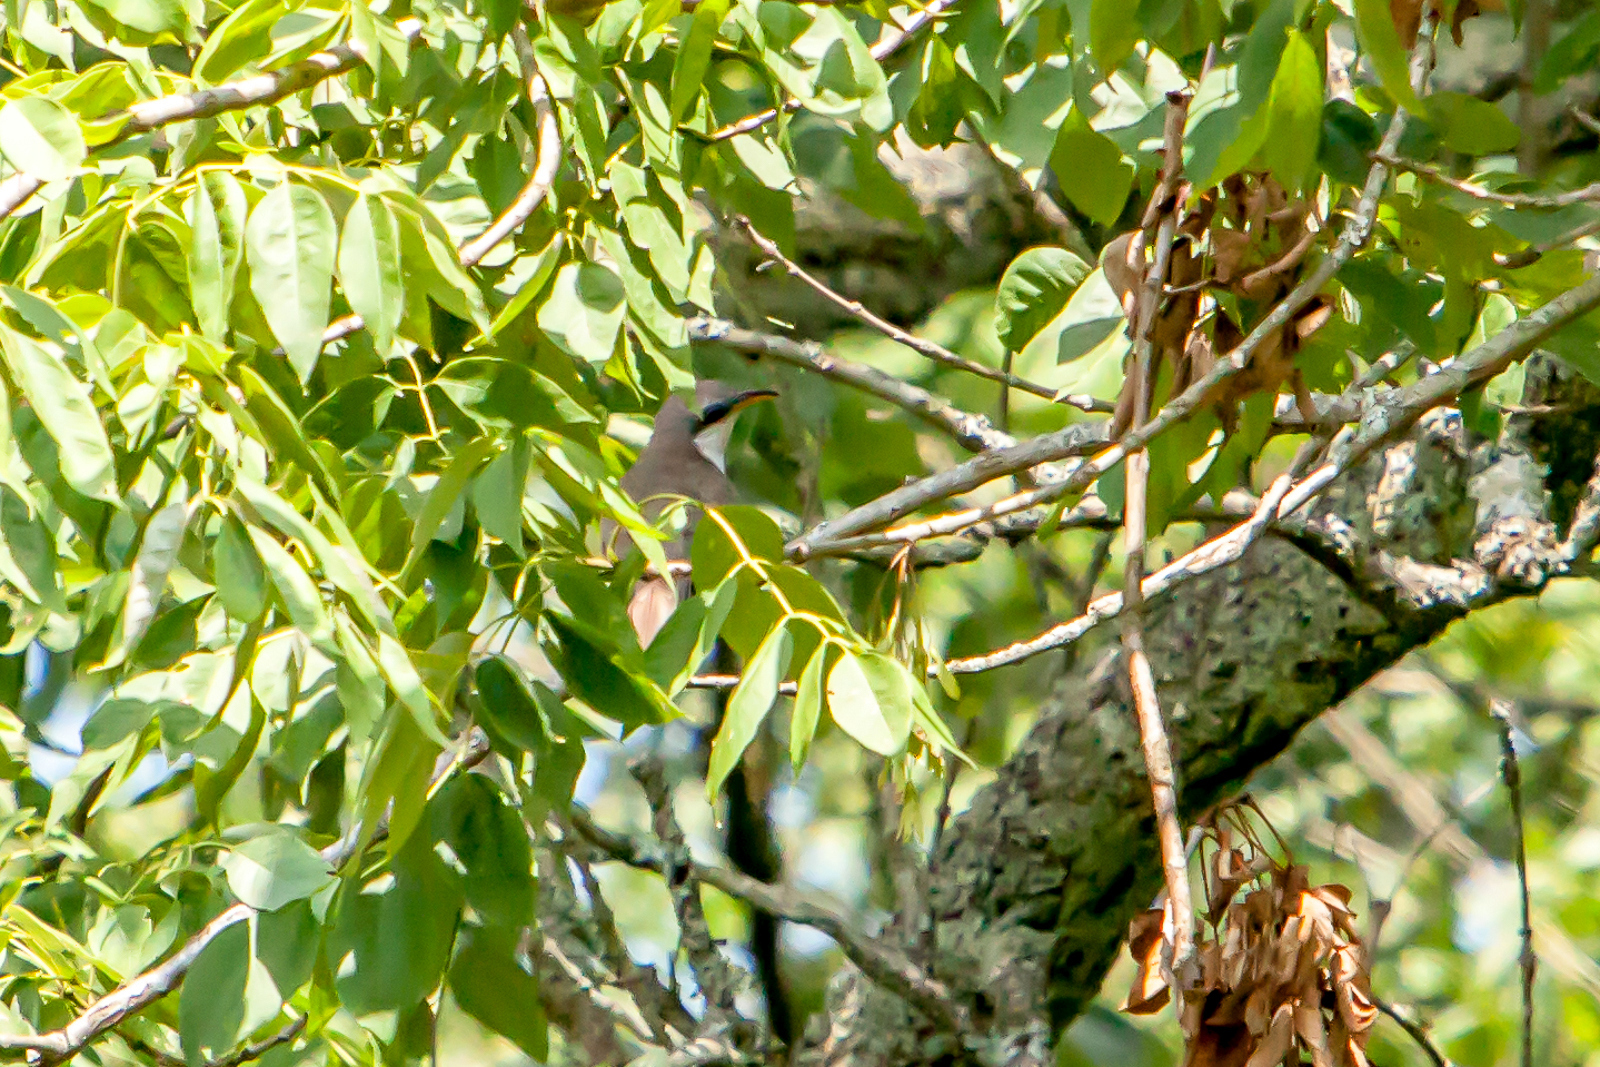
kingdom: Animalia
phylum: Chordata
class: Aves
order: Cuculiformes
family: Cuculidae
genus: Coccyzus
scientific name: Coccyzus americanus
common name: Yellow-billed cuckoo
